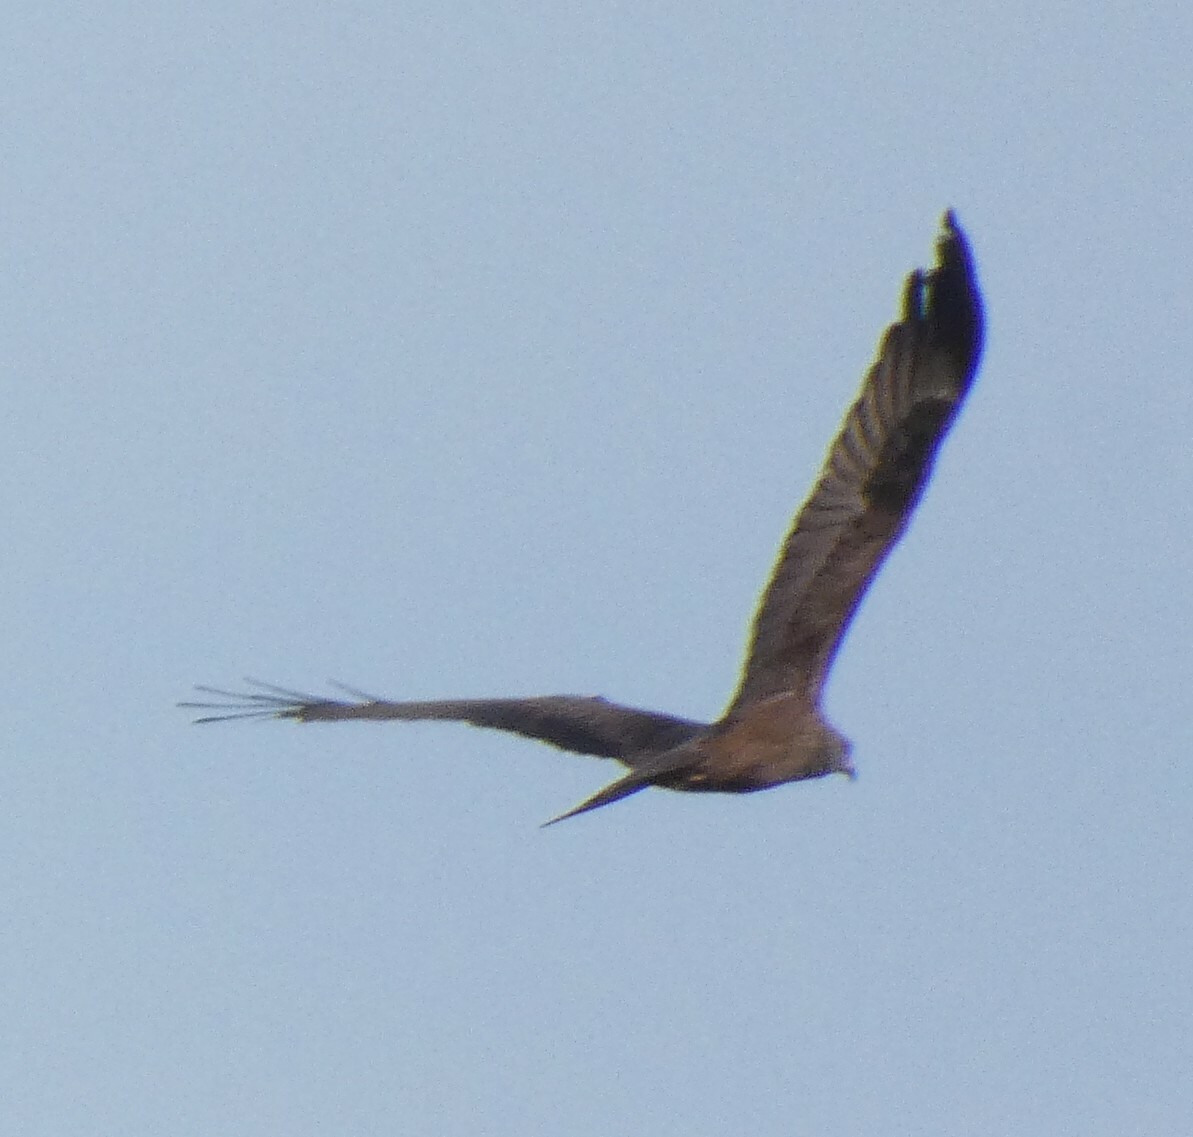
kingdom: Animalia
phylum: Chordata
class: Aves
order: Accipitriformes
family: Accipitridae
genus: Milvus
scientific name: Milvus migrans
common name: Black kite
